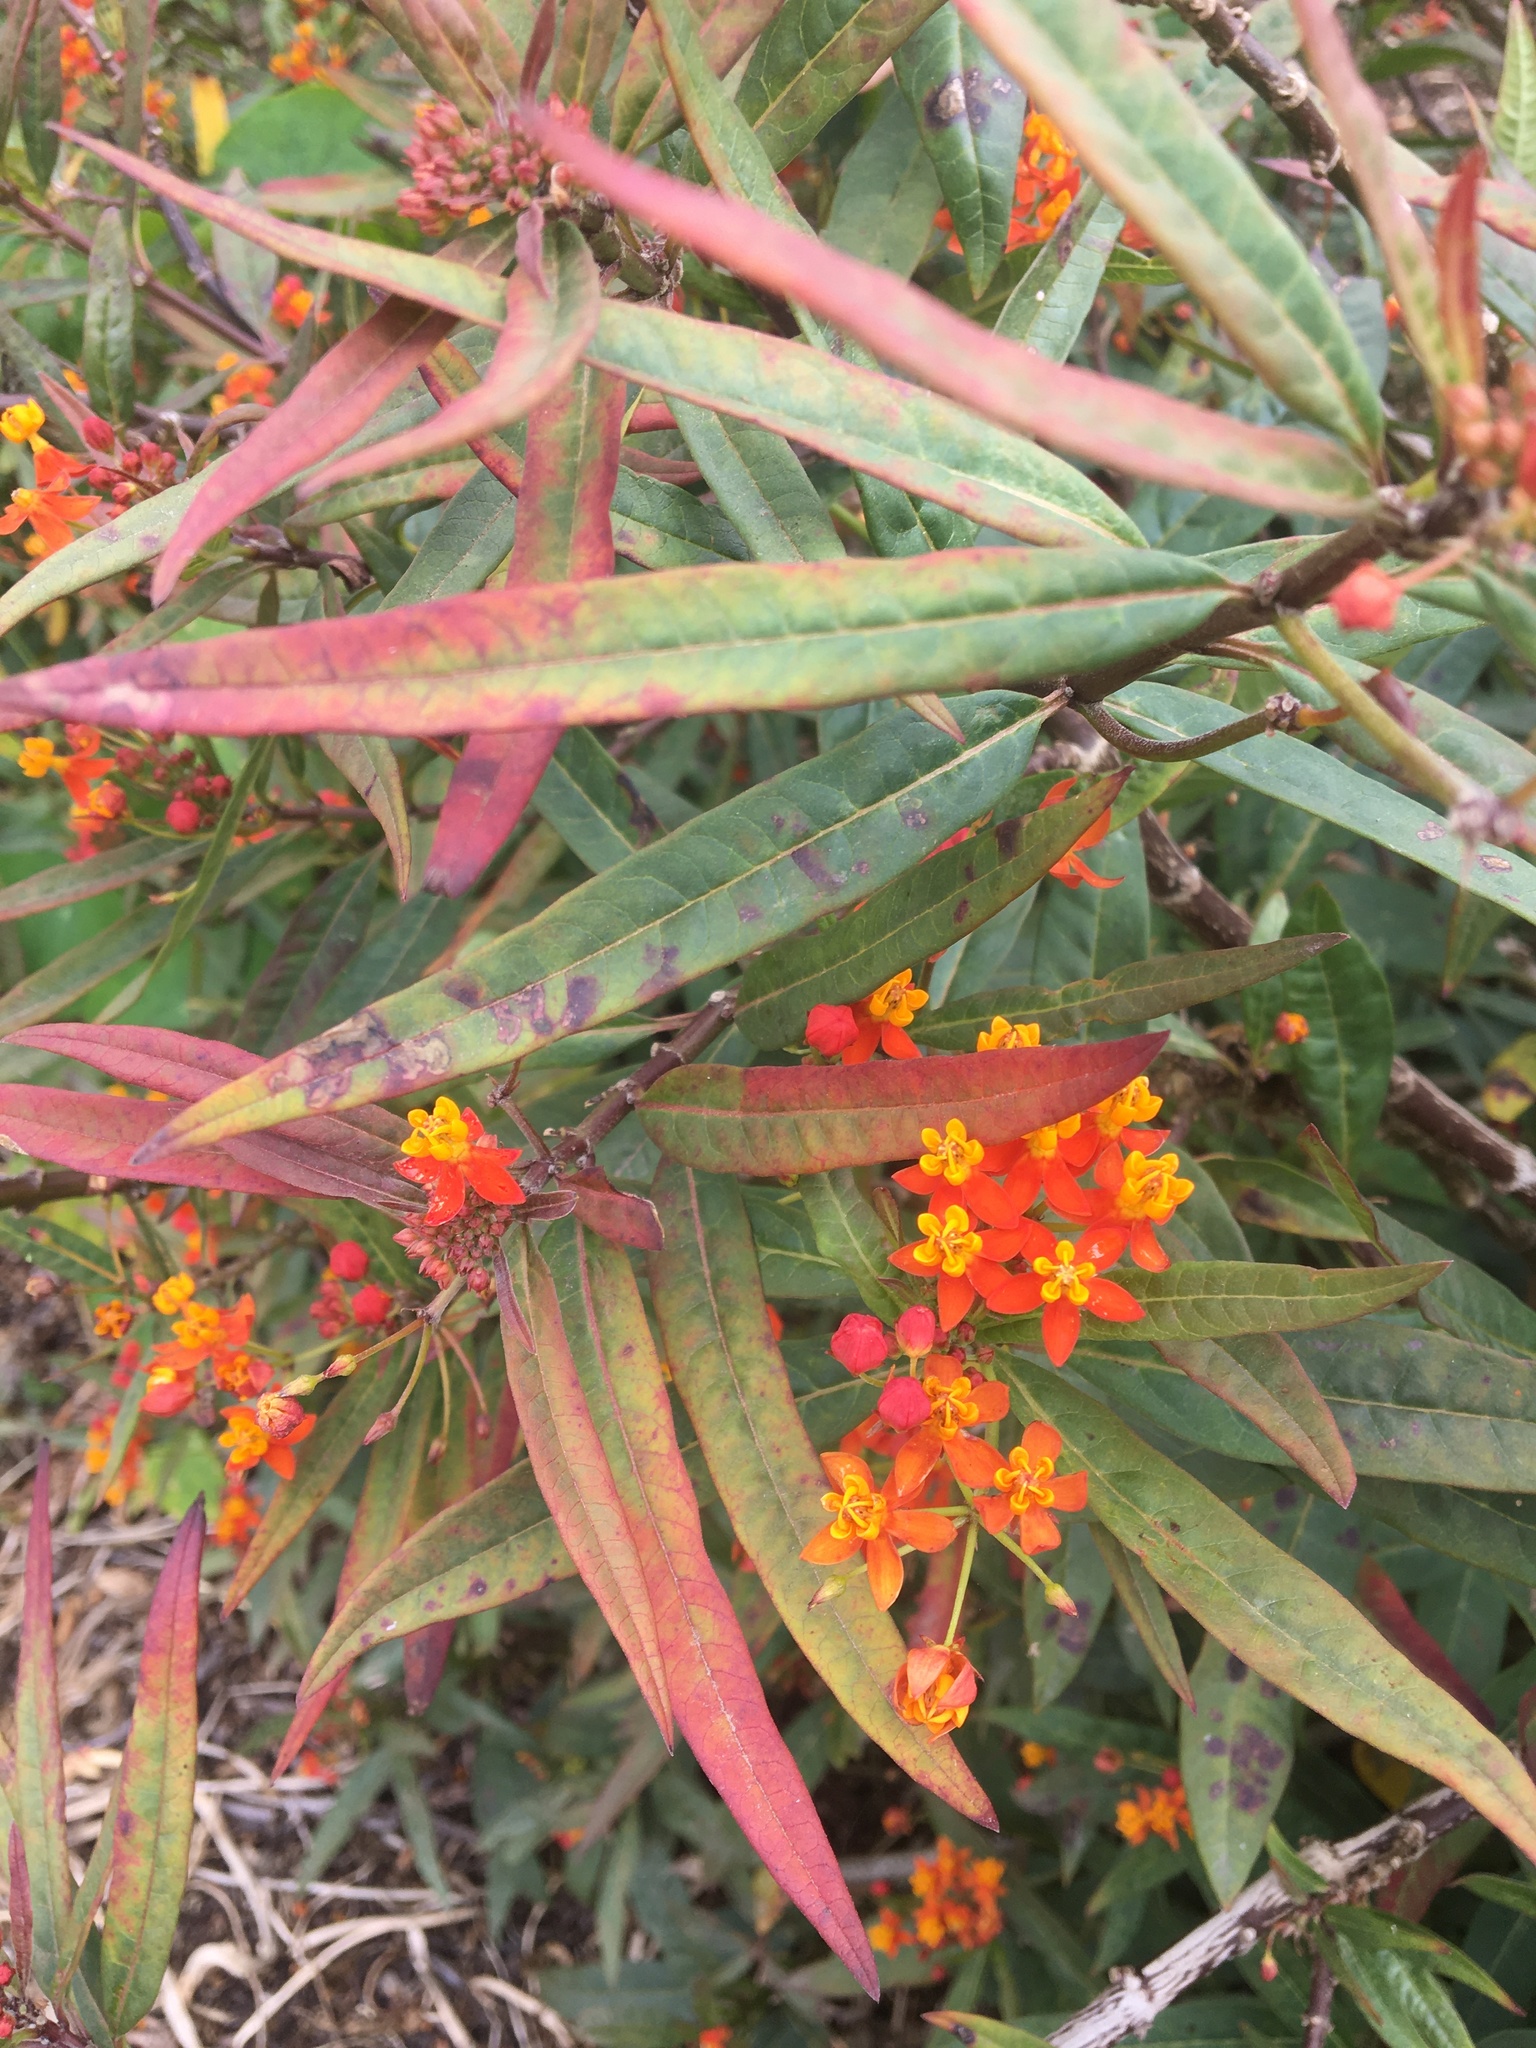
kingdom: Plantae
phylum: Tracheophyta
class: Magnoliopsida
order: Gentianales
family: Apocynaceae
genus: Asclepias
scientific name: Asclepias curassavica
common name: Bloodflower
